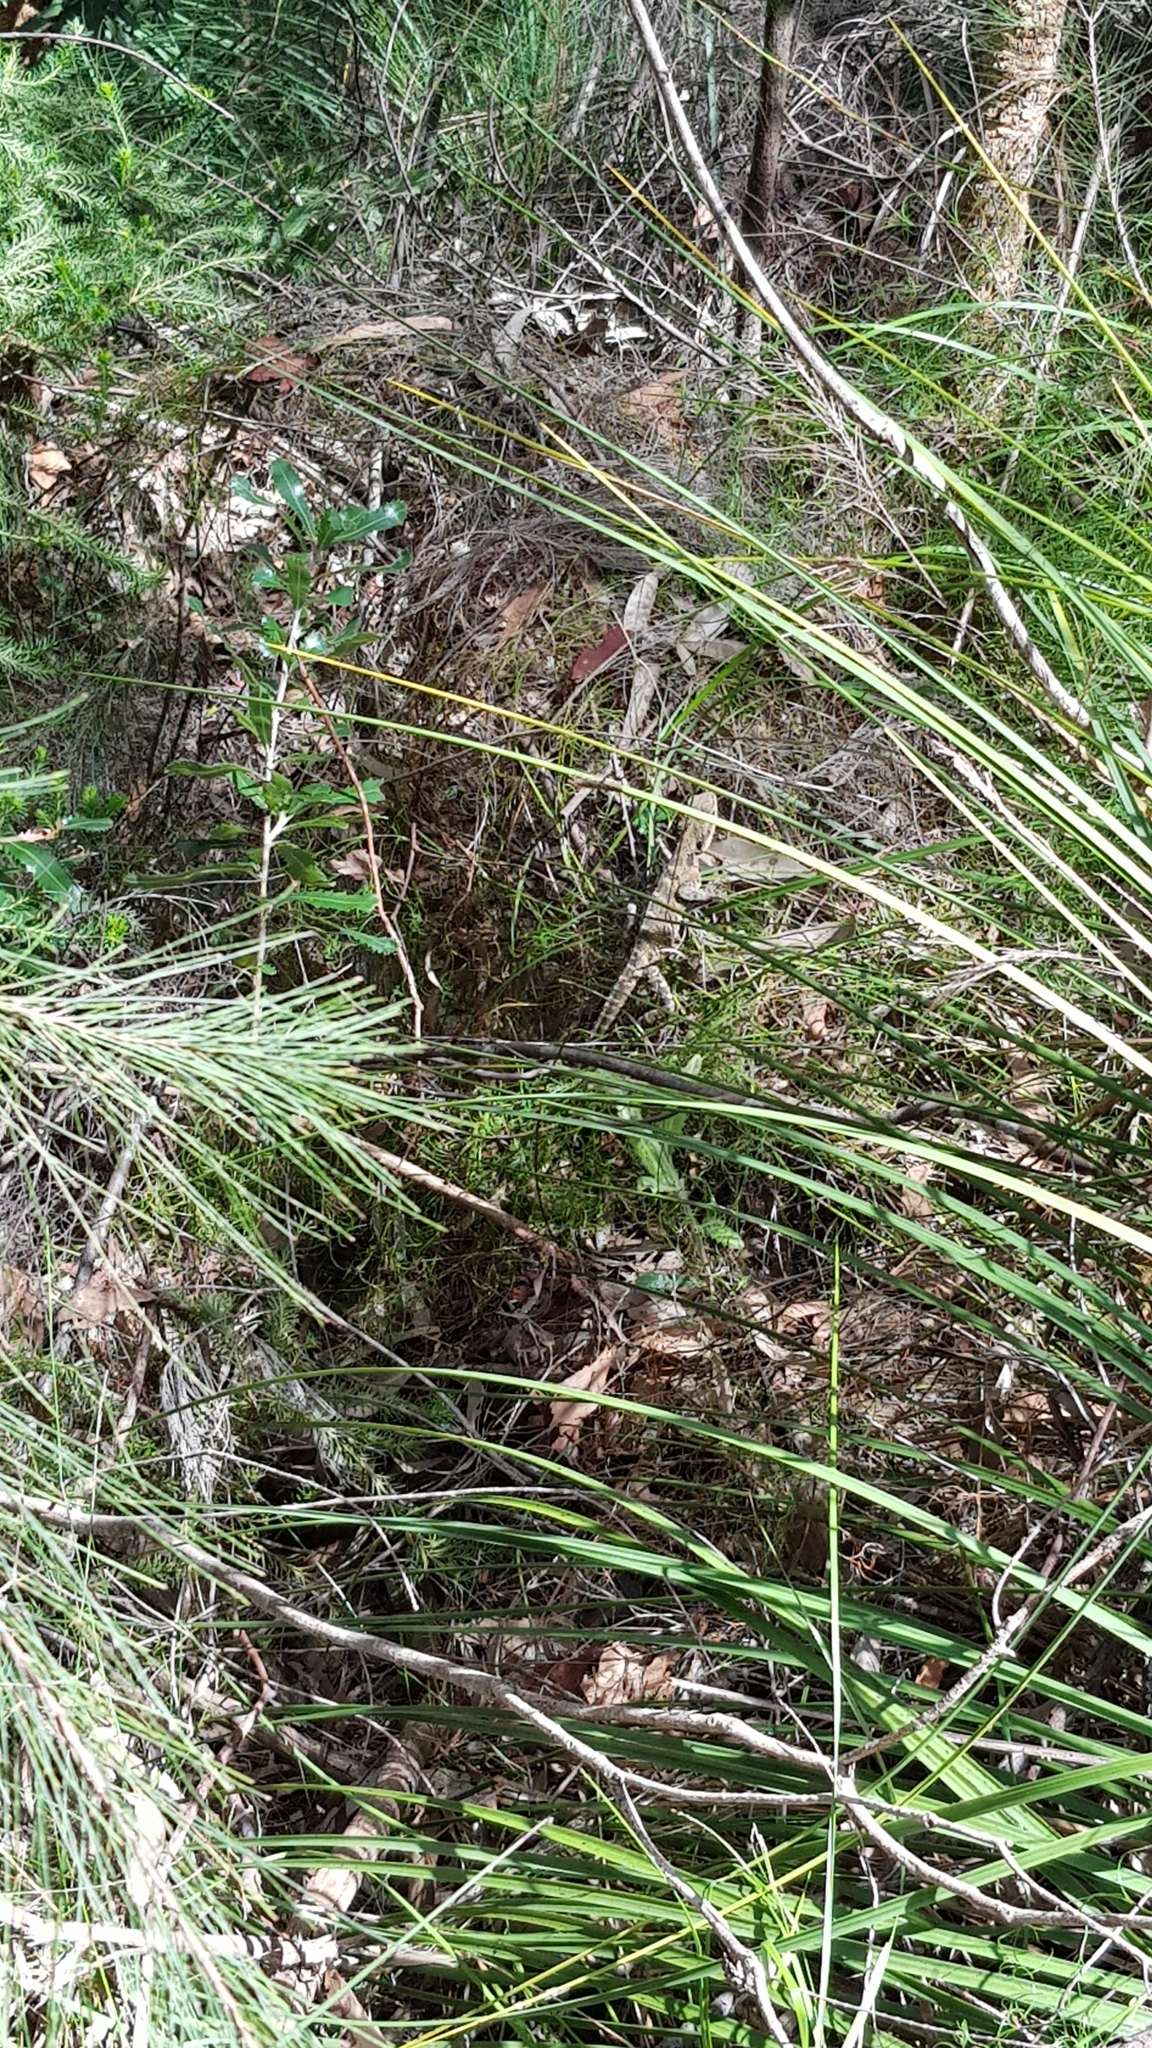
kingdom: Animalia
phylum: Chordata
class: Squamata
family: Agamidae
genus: Intellagama
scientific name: Intellagama lesueurii
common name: Eastern water dragon
